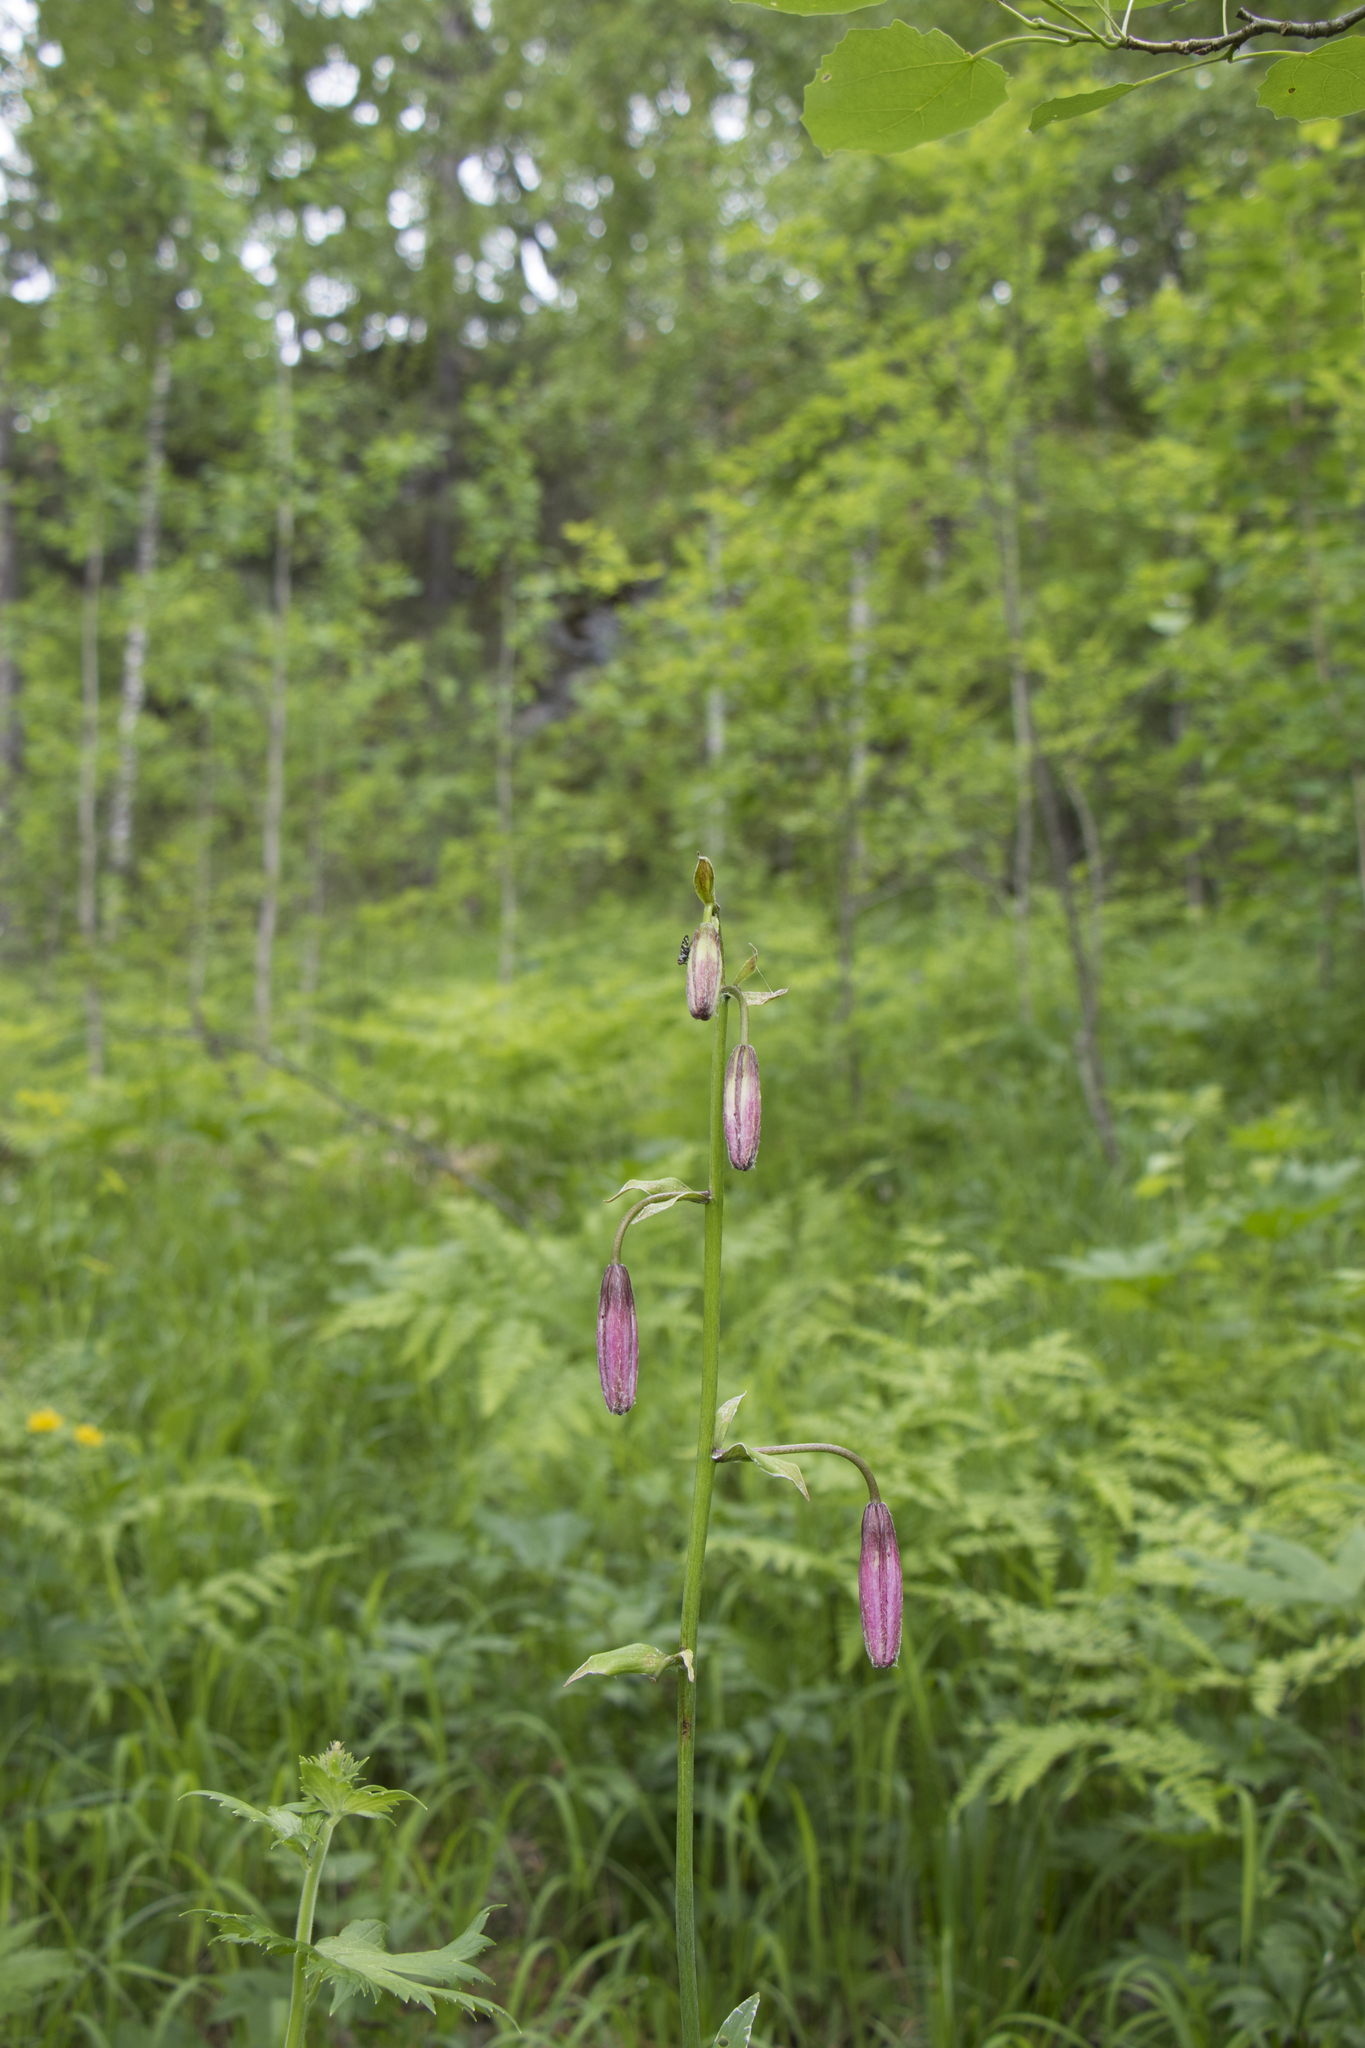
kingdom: Plantae
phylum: Tracheophyta
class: Liliopsida
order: Liliales
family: Liliaceae
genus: Lilium
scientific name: Lilium martagon
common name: Martagon lily
